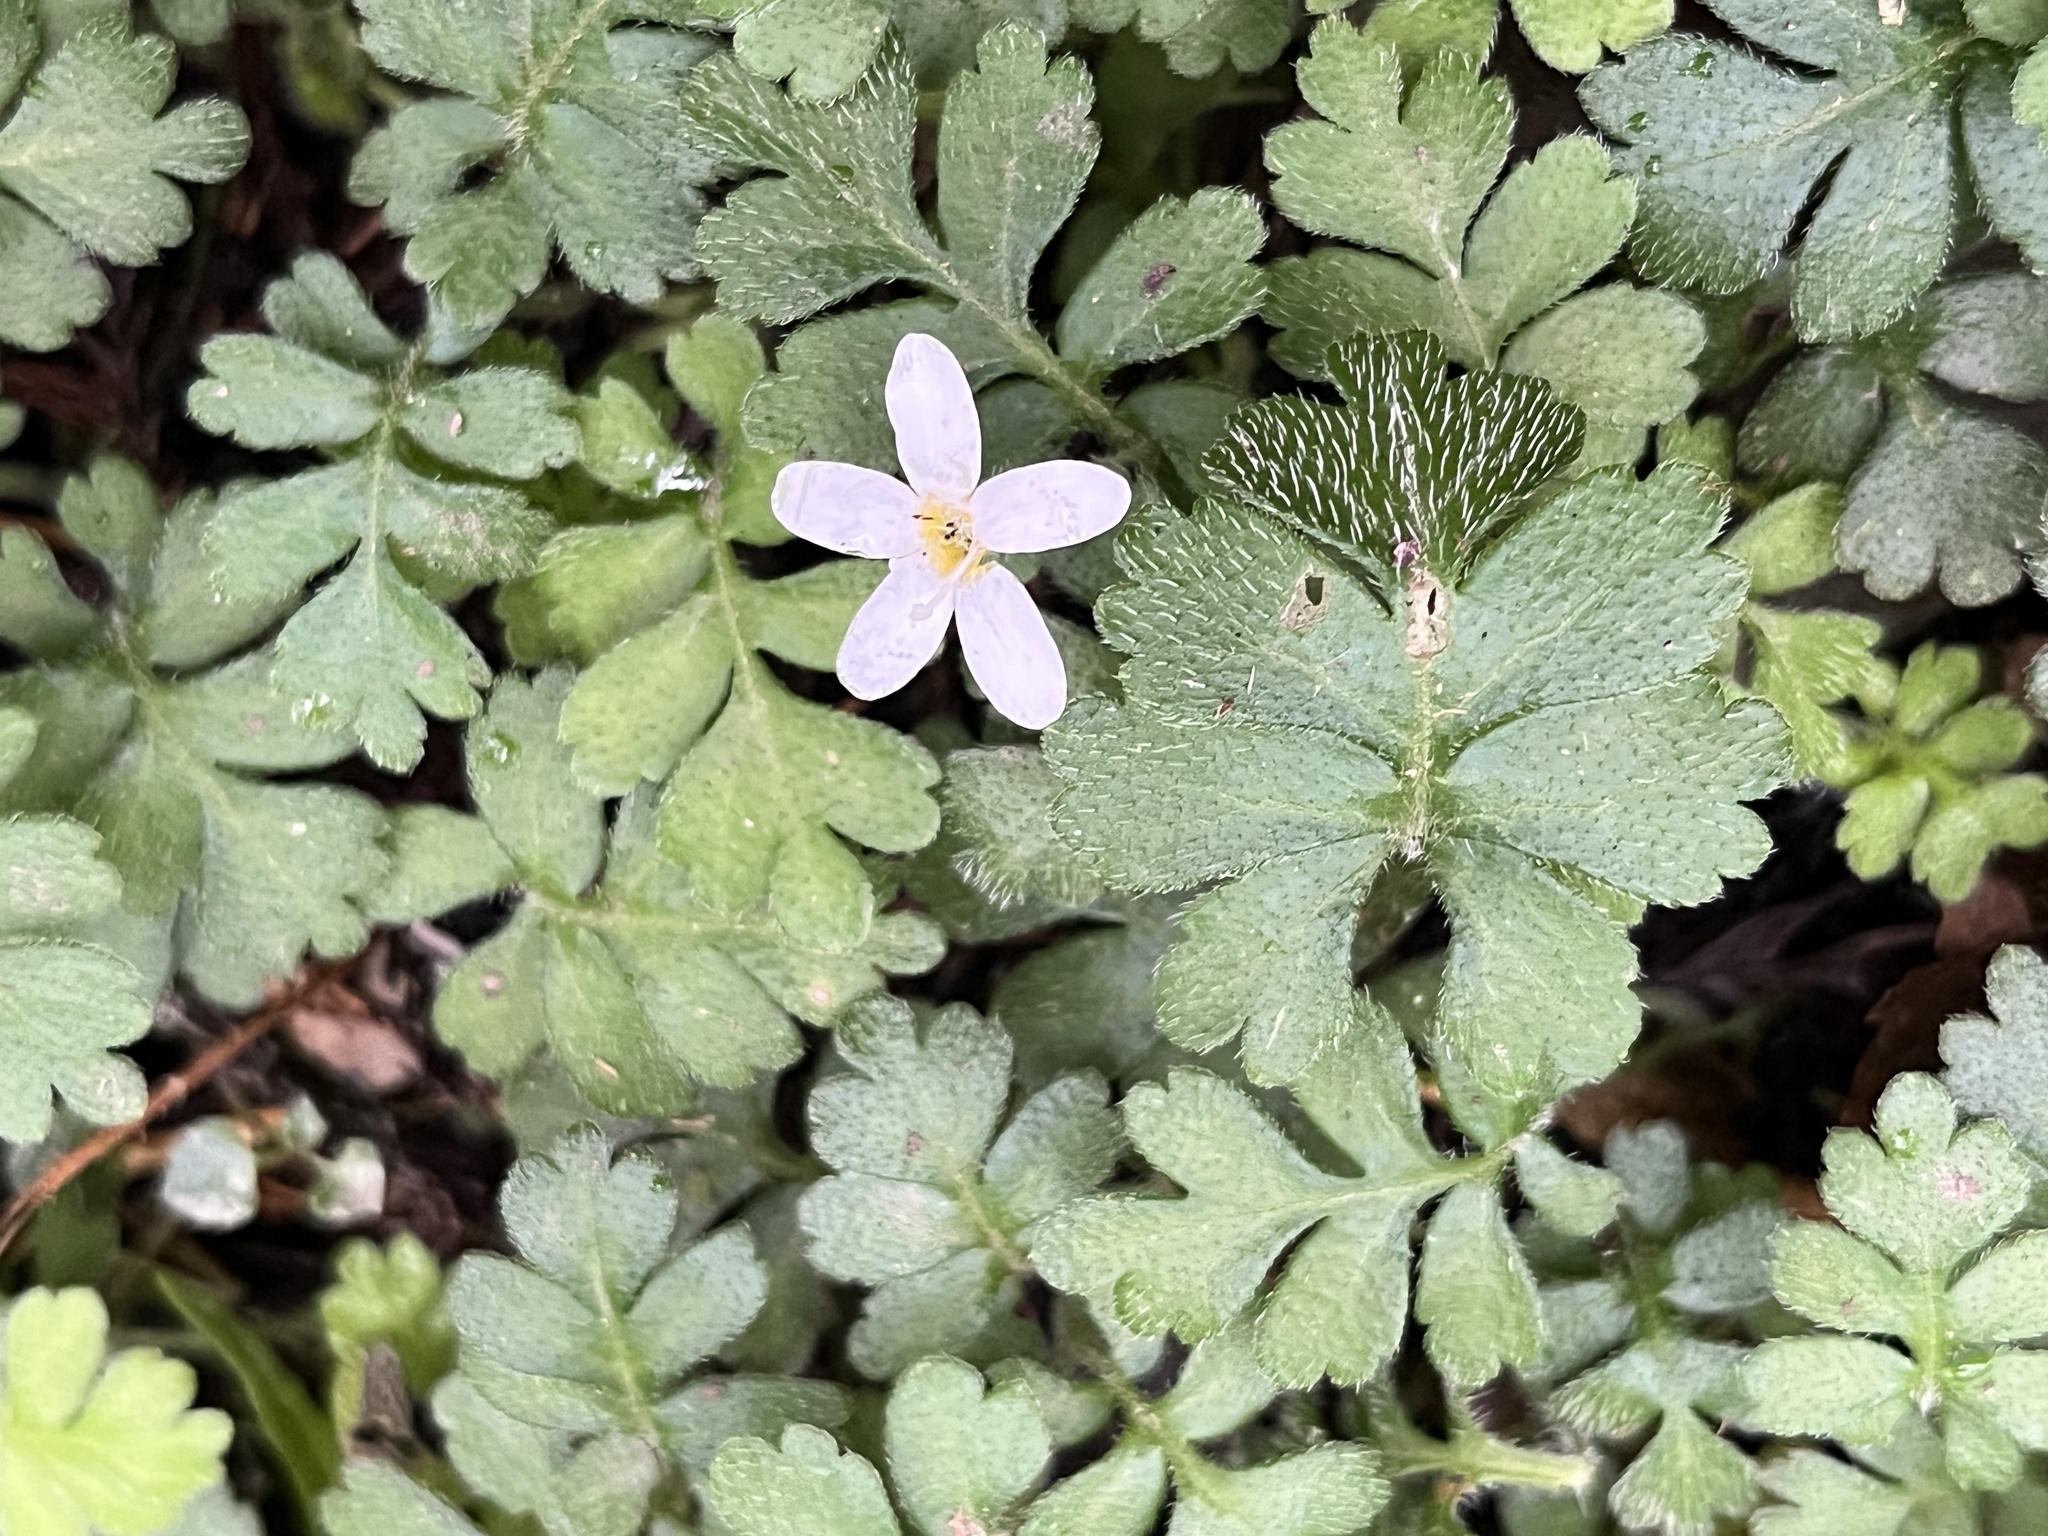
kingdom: Plantae
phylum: Tracheophyta
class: Magnoliopsida
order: Lamiales
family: Plantaginaceae
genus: Ellisiophyllum
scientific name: Ellisiophyllum pinnatum
